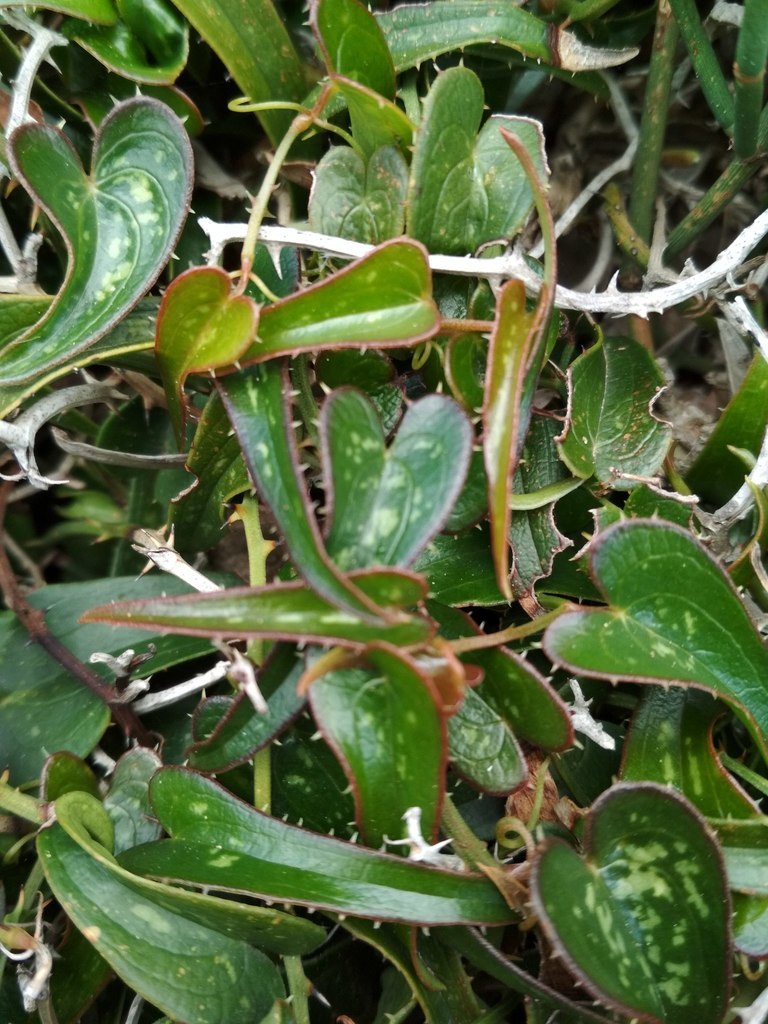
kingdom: Plantae
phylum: Tracheophyta
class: Liliopsida
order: Liliales
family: Smilacaceae
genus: Smilax
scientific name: Smilax aspera
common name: Common smilax
